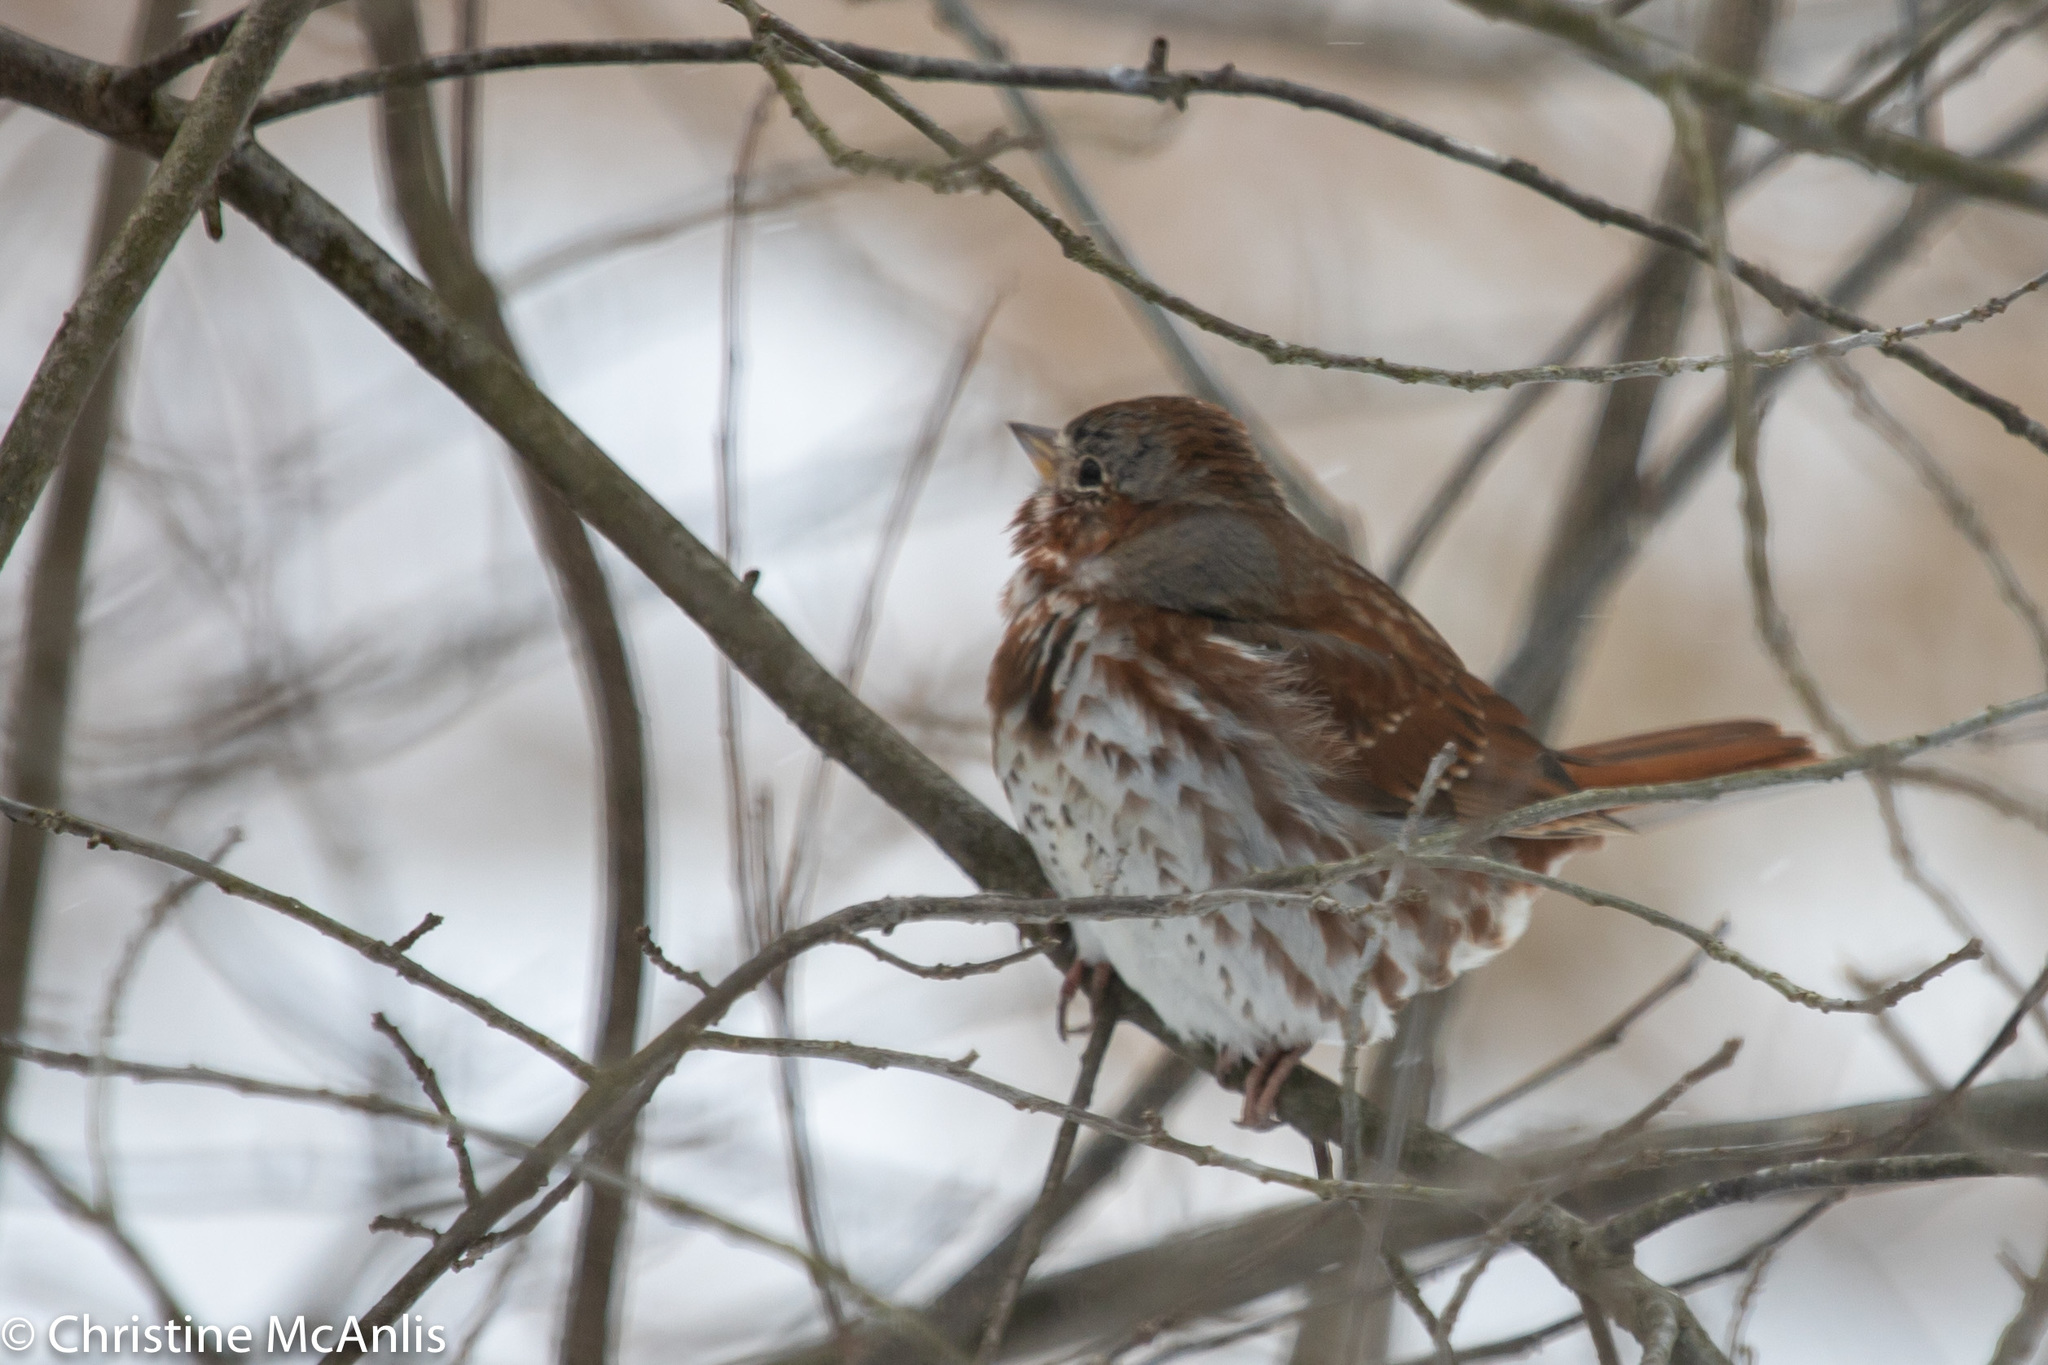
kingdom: Animalia
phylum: Chordata
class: Aves
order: Passeriformes
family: Passerellidae
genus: Passerella
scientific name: Passerella iliaca
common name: Fox sparrow
